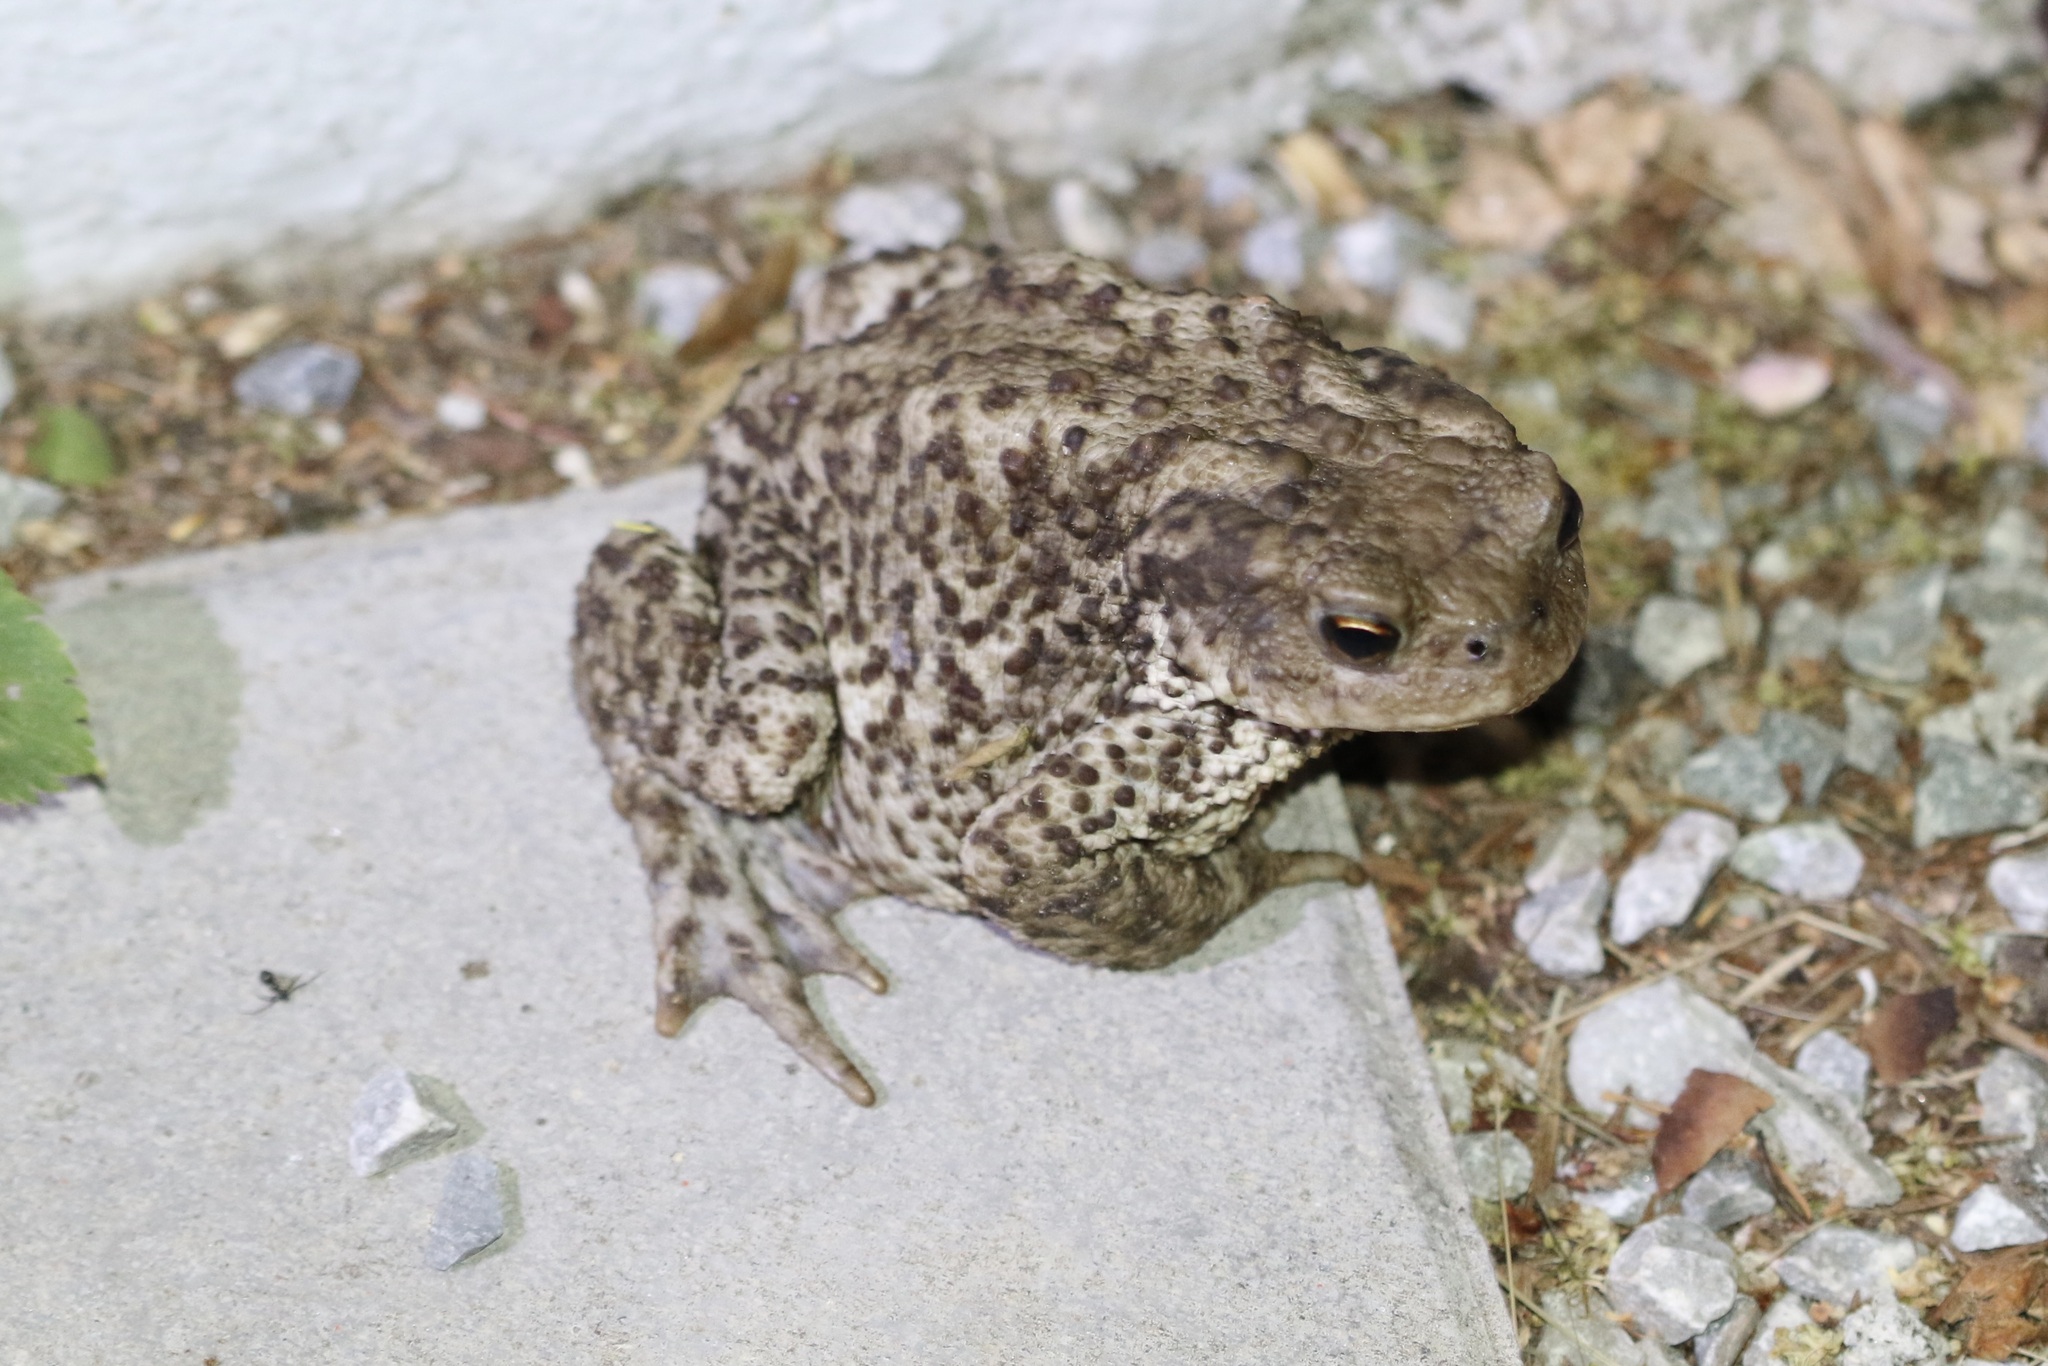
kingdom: Animalia
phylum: Chordata
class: Amphibia
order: Anura
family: Bufonidae
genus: Bufo
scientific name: Bufo bufo
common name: Common toad
